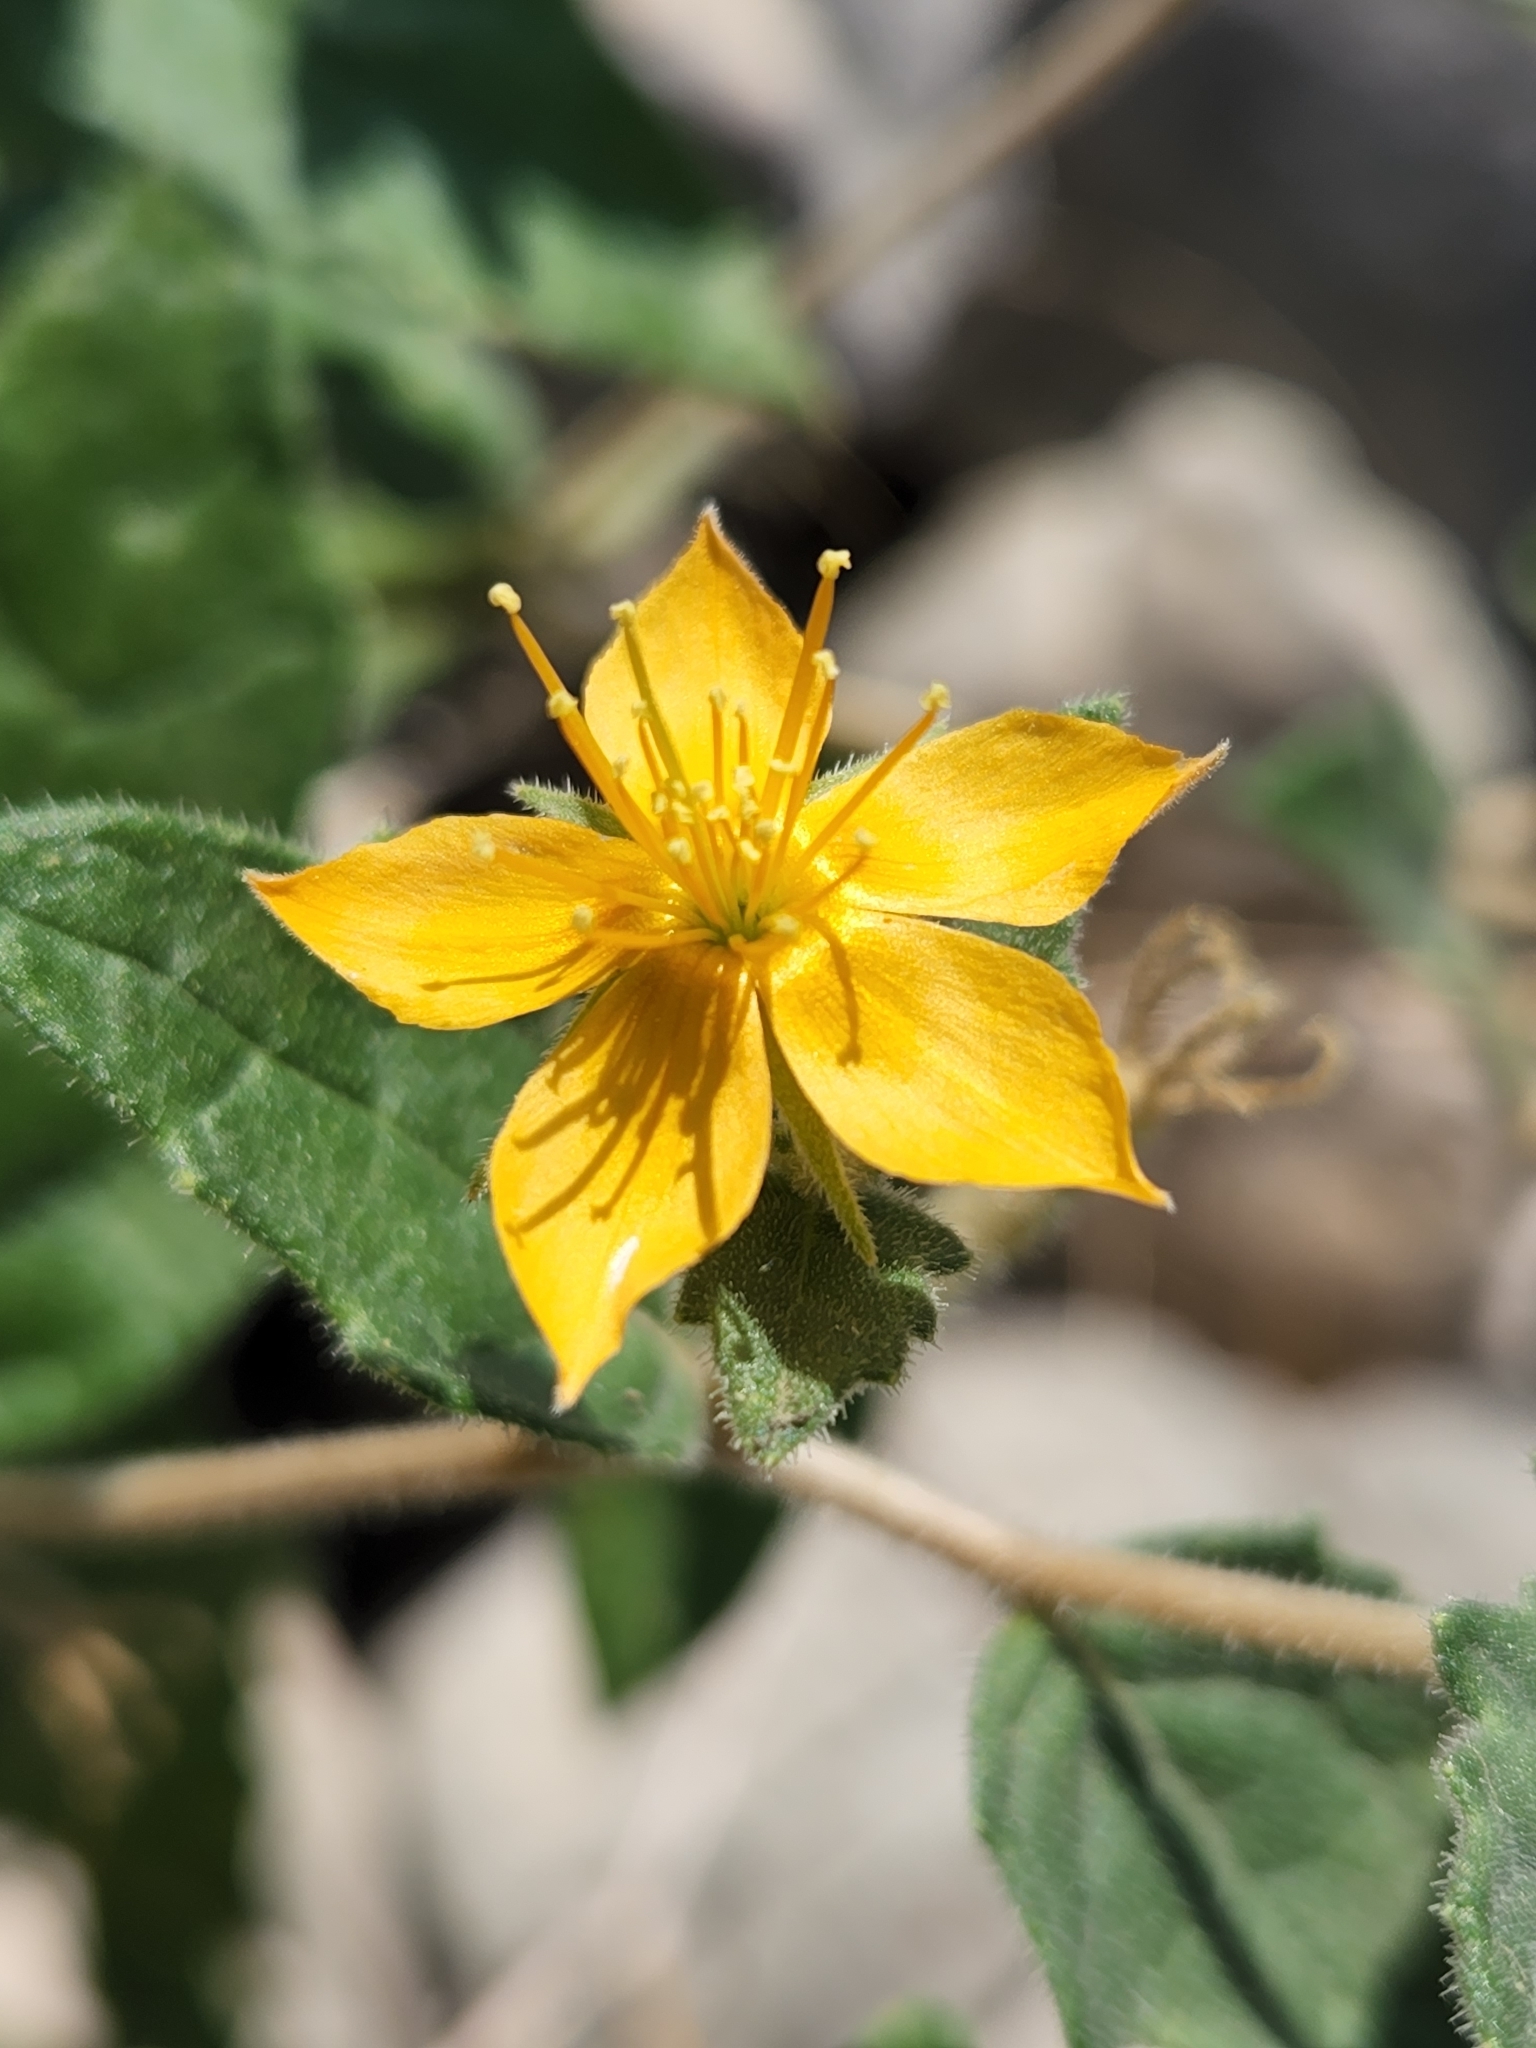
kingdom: Plantae
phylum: Tracheophyta
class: Magnoliopsida
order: Cornales
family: Loasaceae
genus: Mentzelia
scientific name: Mentzelia oligosperma
